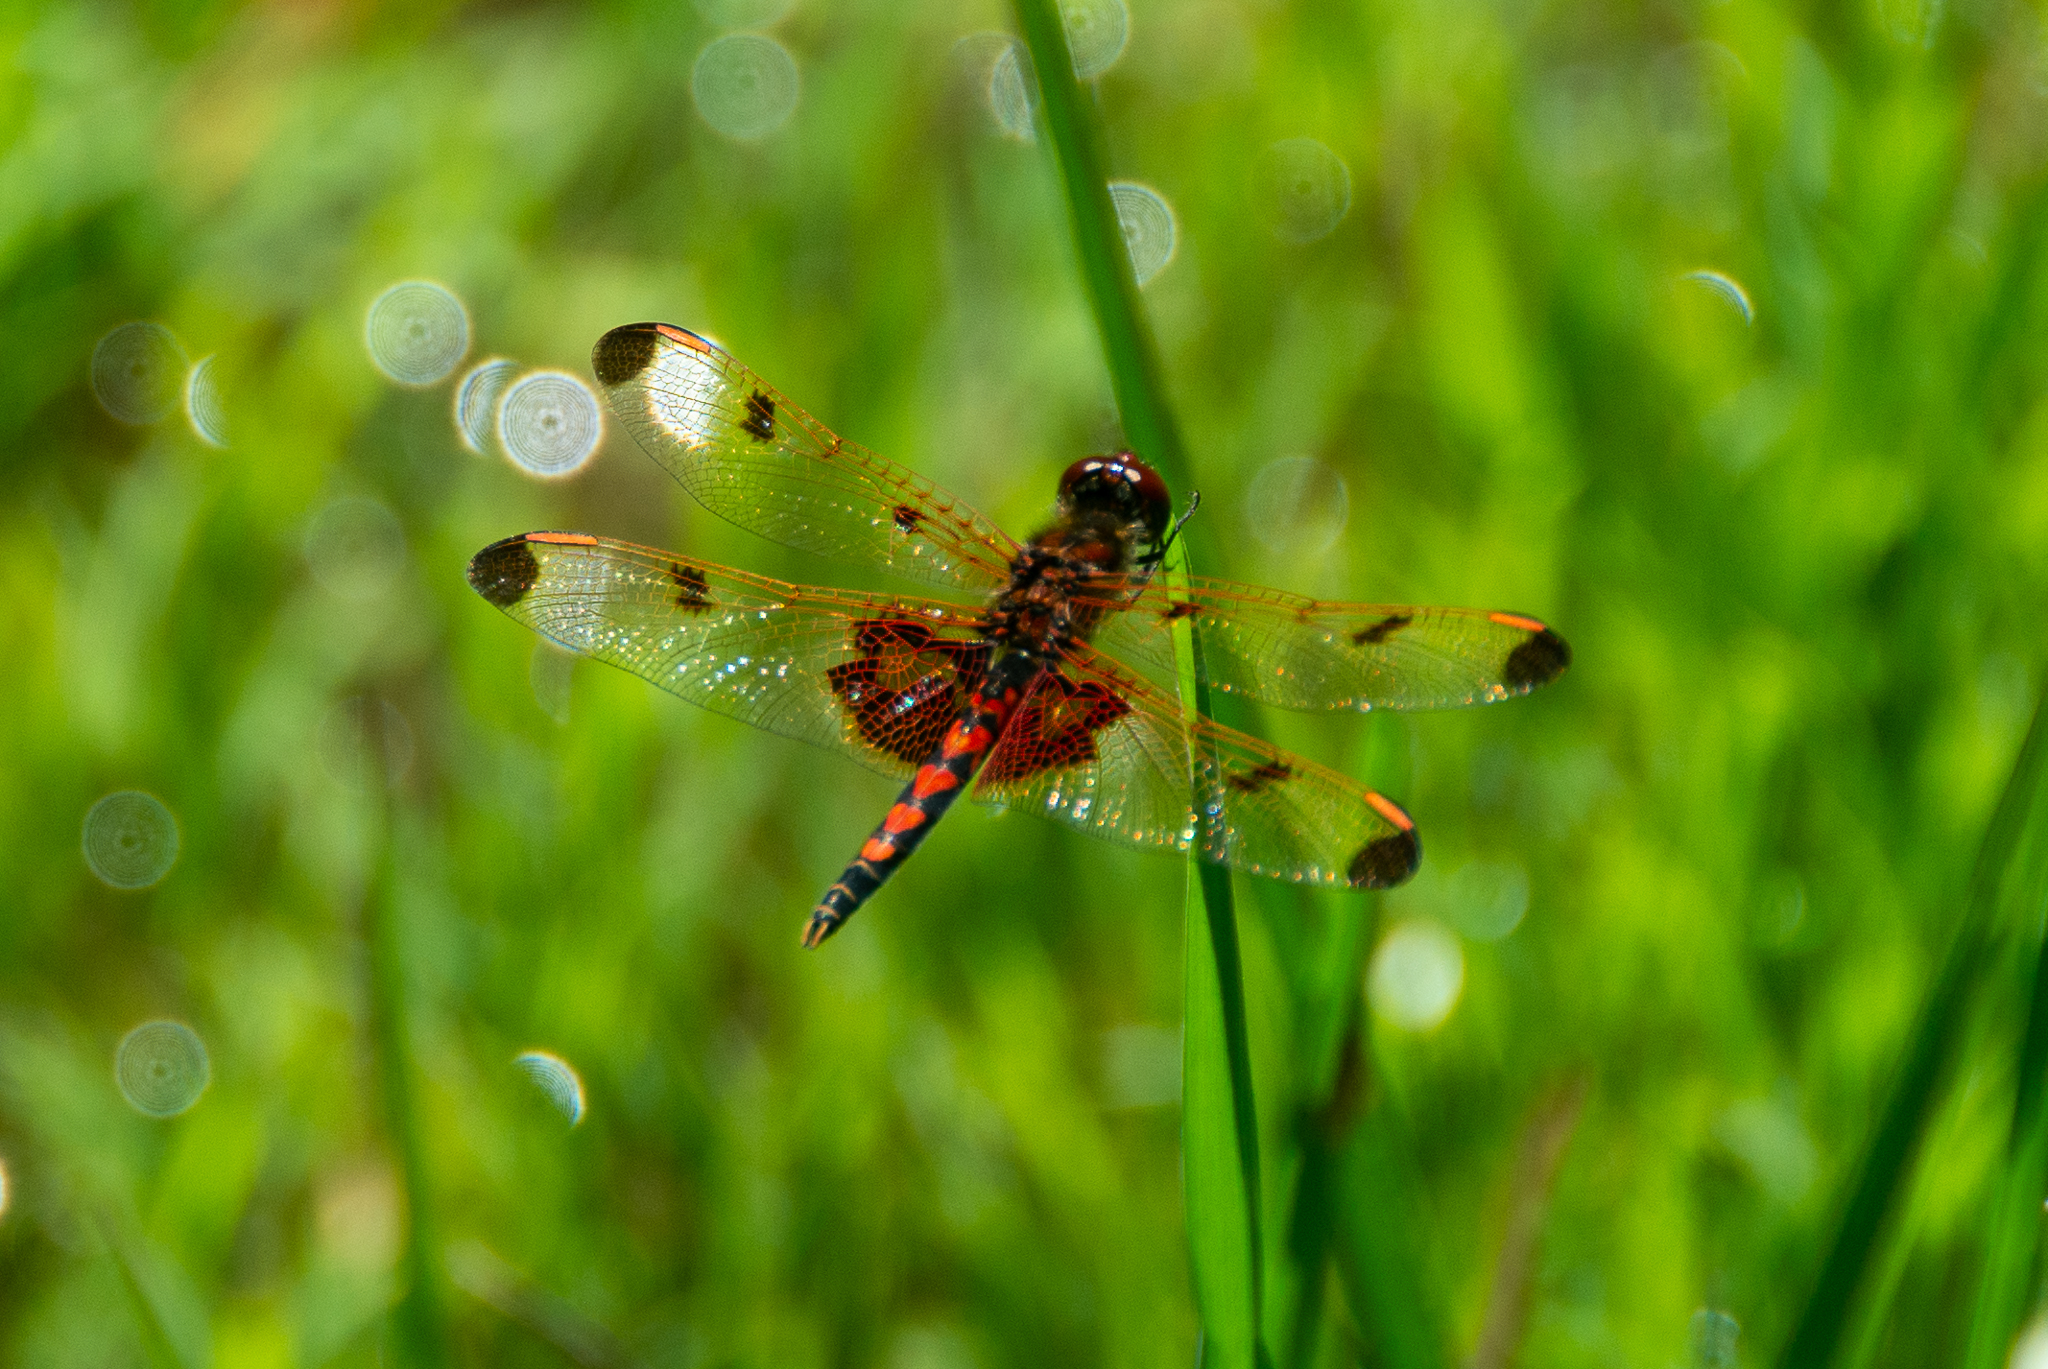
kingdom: Animalia
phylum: Arthropoda
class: Insecta
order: Odonata
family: Libellulidae
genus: Celithemis
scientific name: Celithemis elisa
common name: Calico pennant
